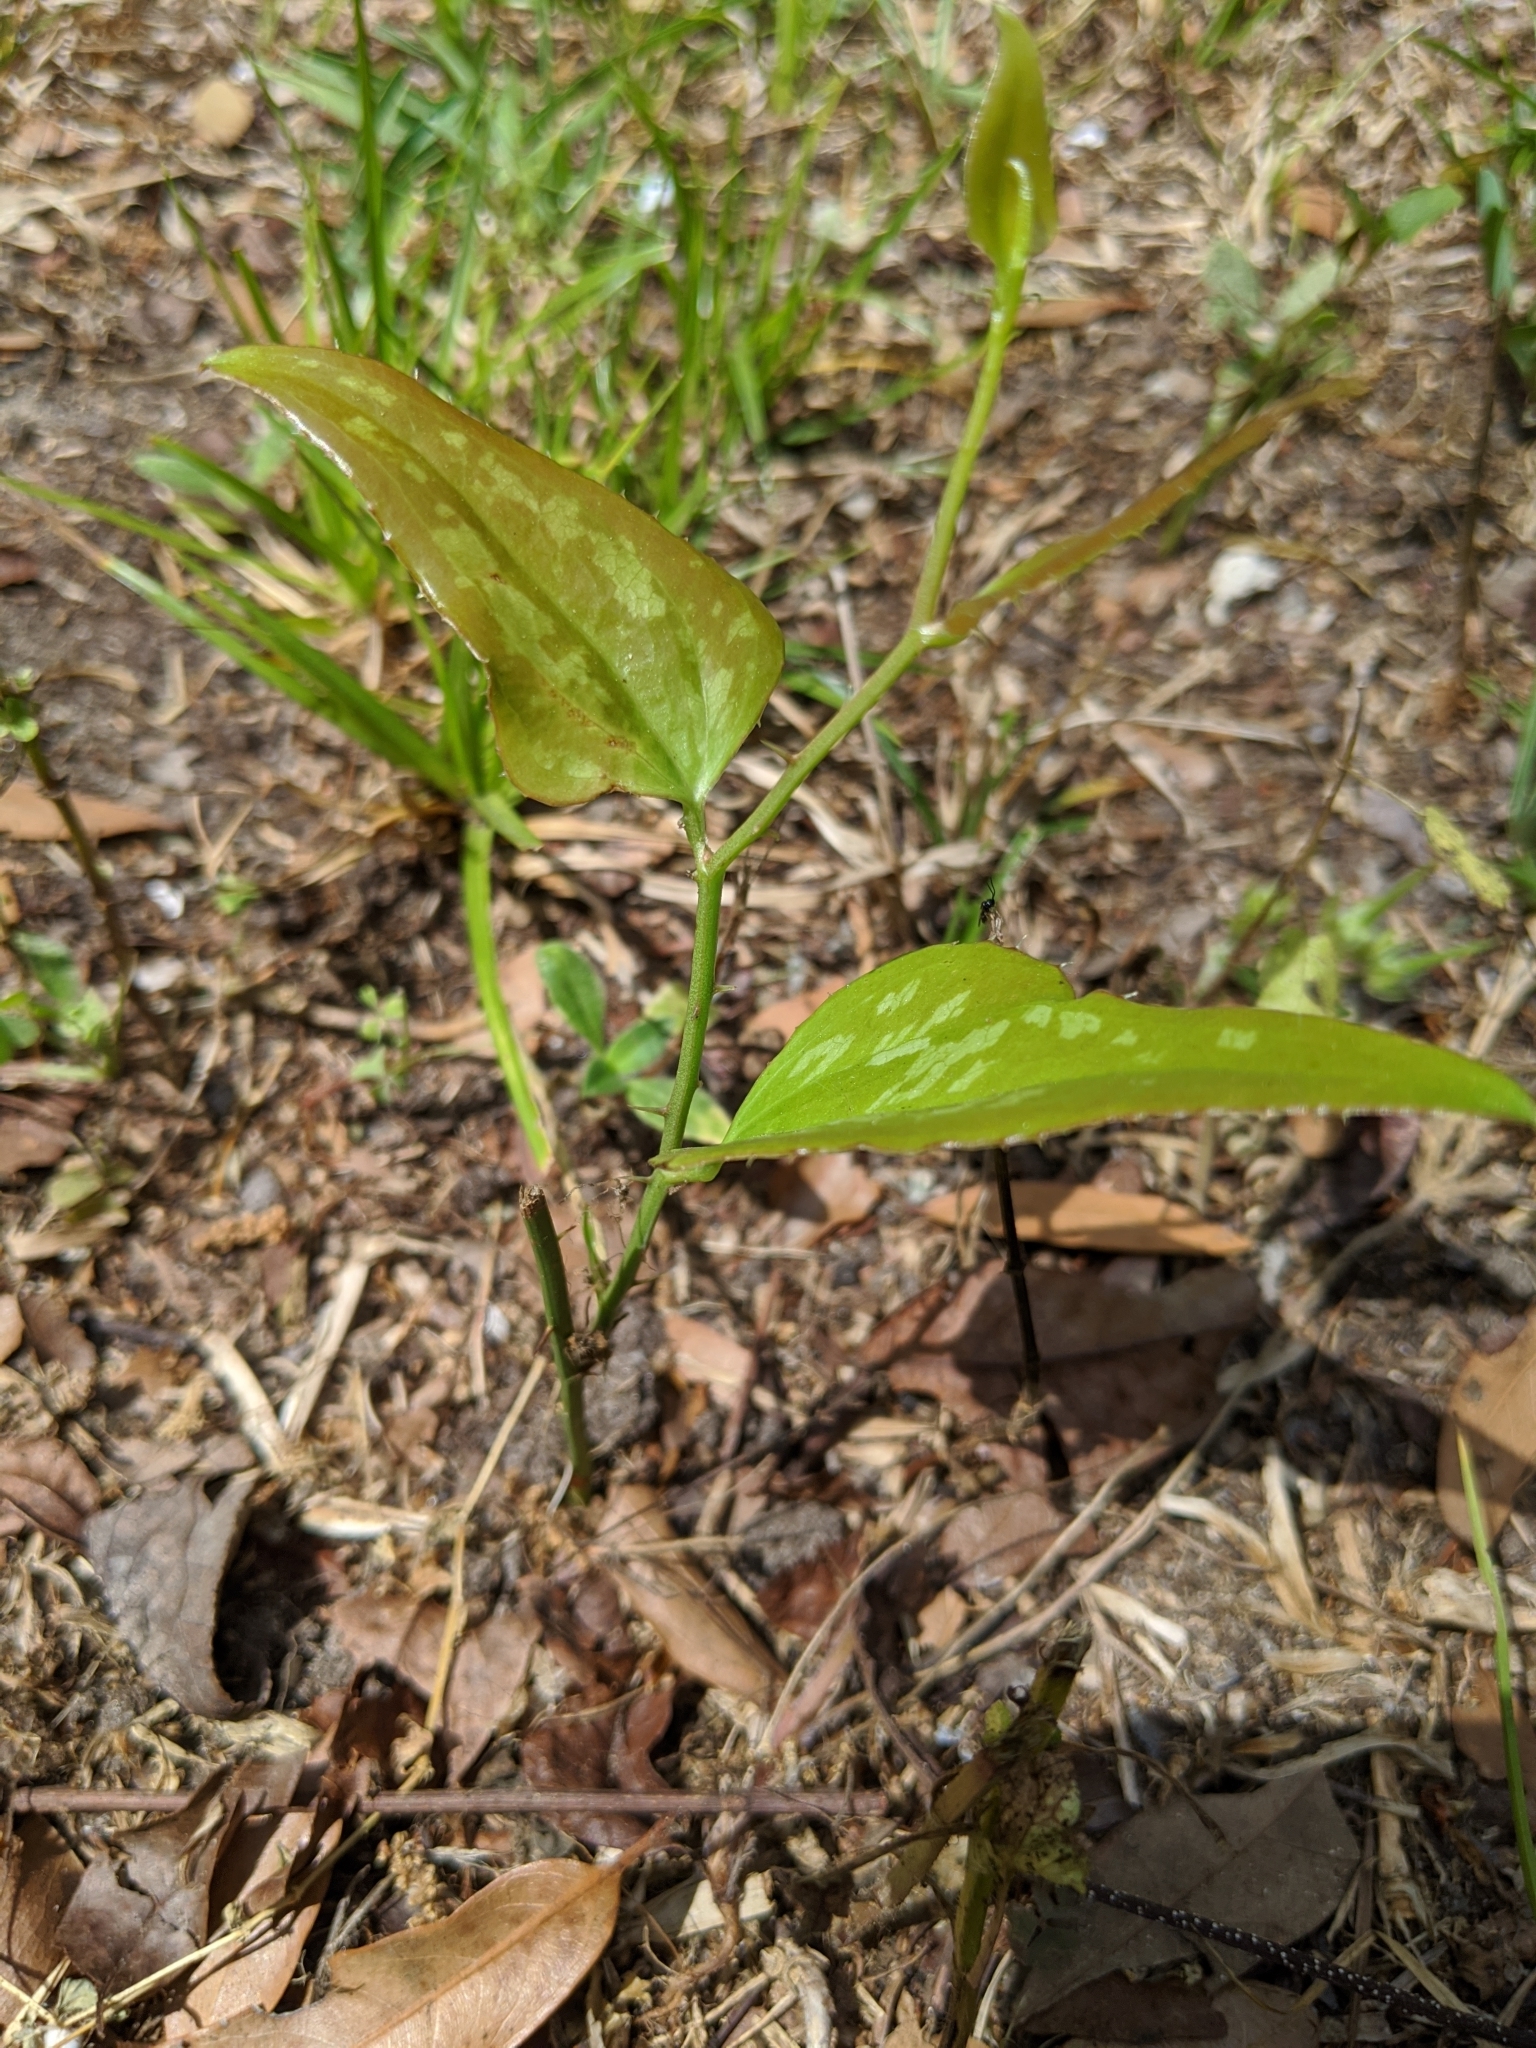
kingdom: Plantae
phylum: Tracheophyta
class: Liliopsida
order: Liliales
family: Smilacaceae
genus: Smilax
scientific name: Smilax bona-nox
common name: Catbrier
